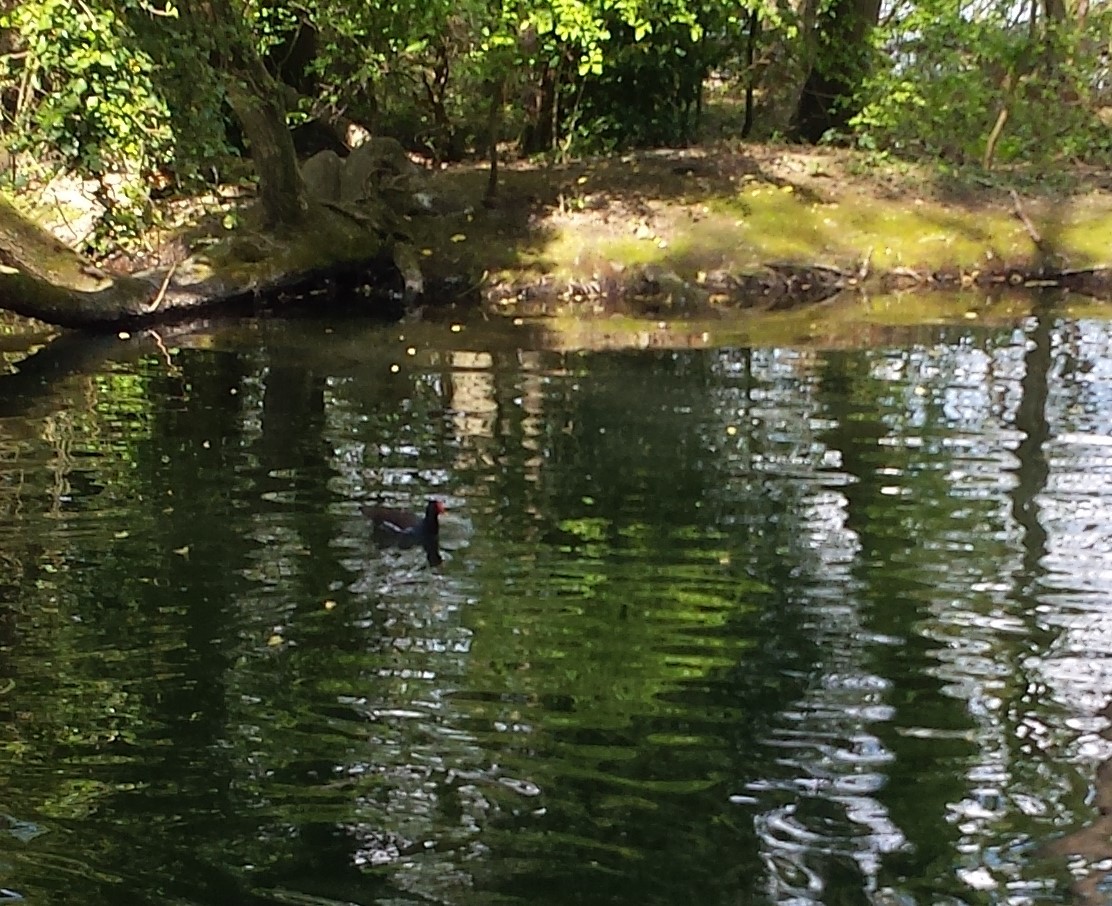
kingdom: Animalia
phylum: Chordata
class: Aves
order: Gruiformes
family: Rallidae
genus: Gallinula
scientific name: Gallinula chloropus
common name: Common moorhen
